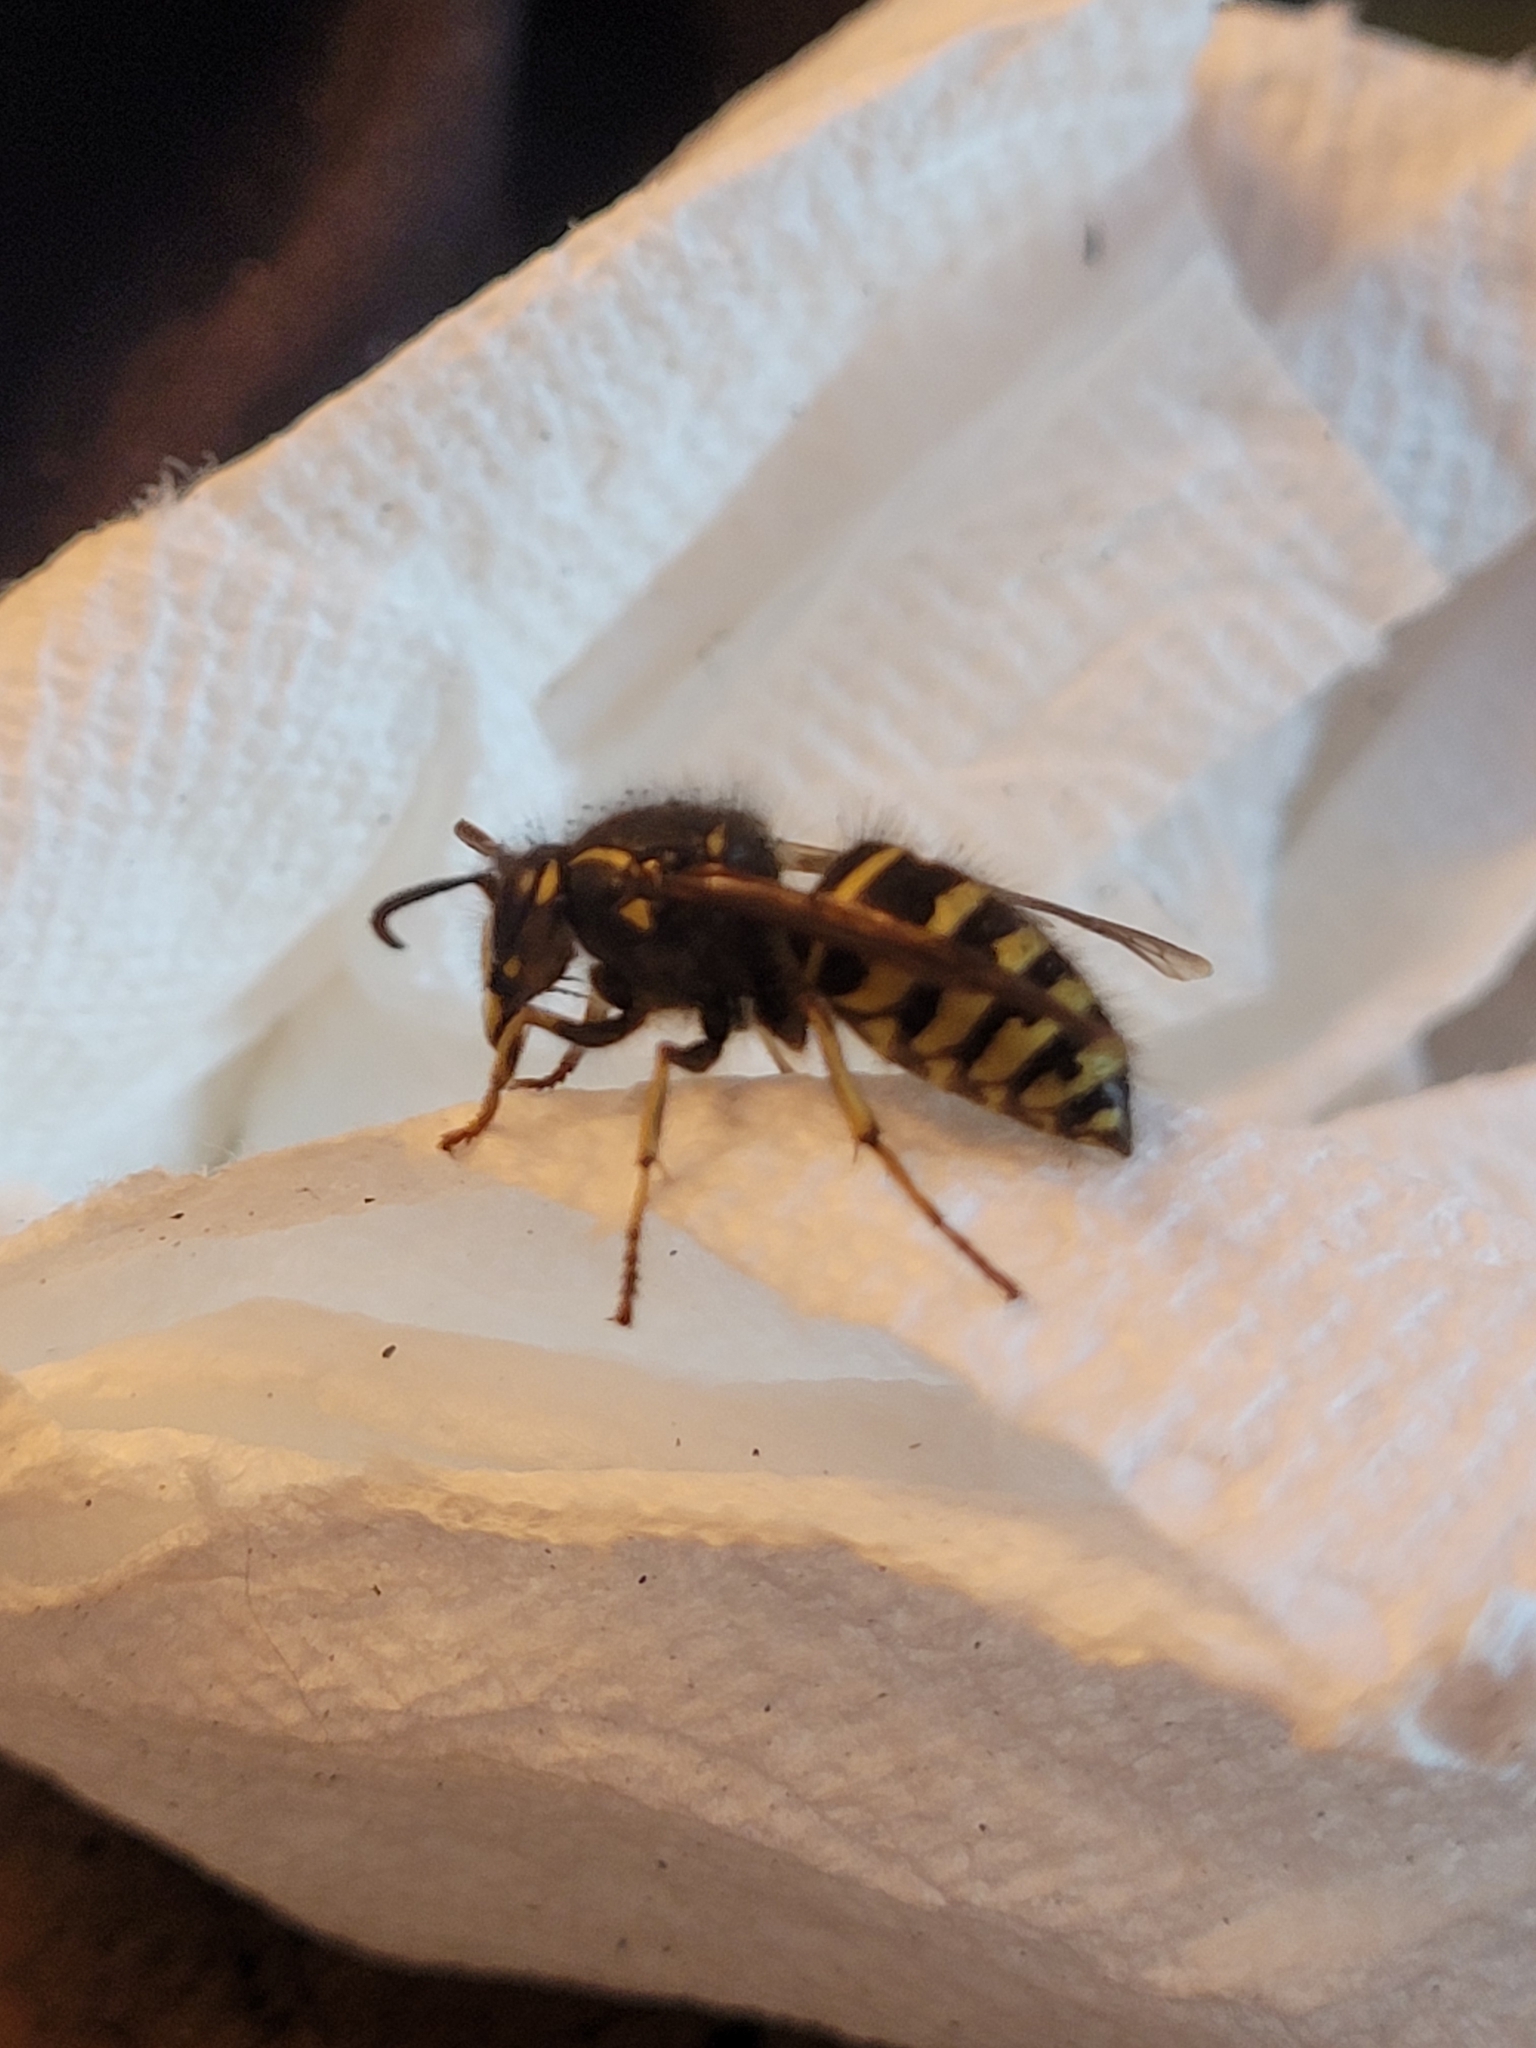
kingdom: Animalia
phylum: Arthropoda
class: Insecta
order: Hymenoptera
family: Vespidae
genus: Dolichovespula
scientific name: Dolichovespula arenaria
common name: Aerial yellowjacket
